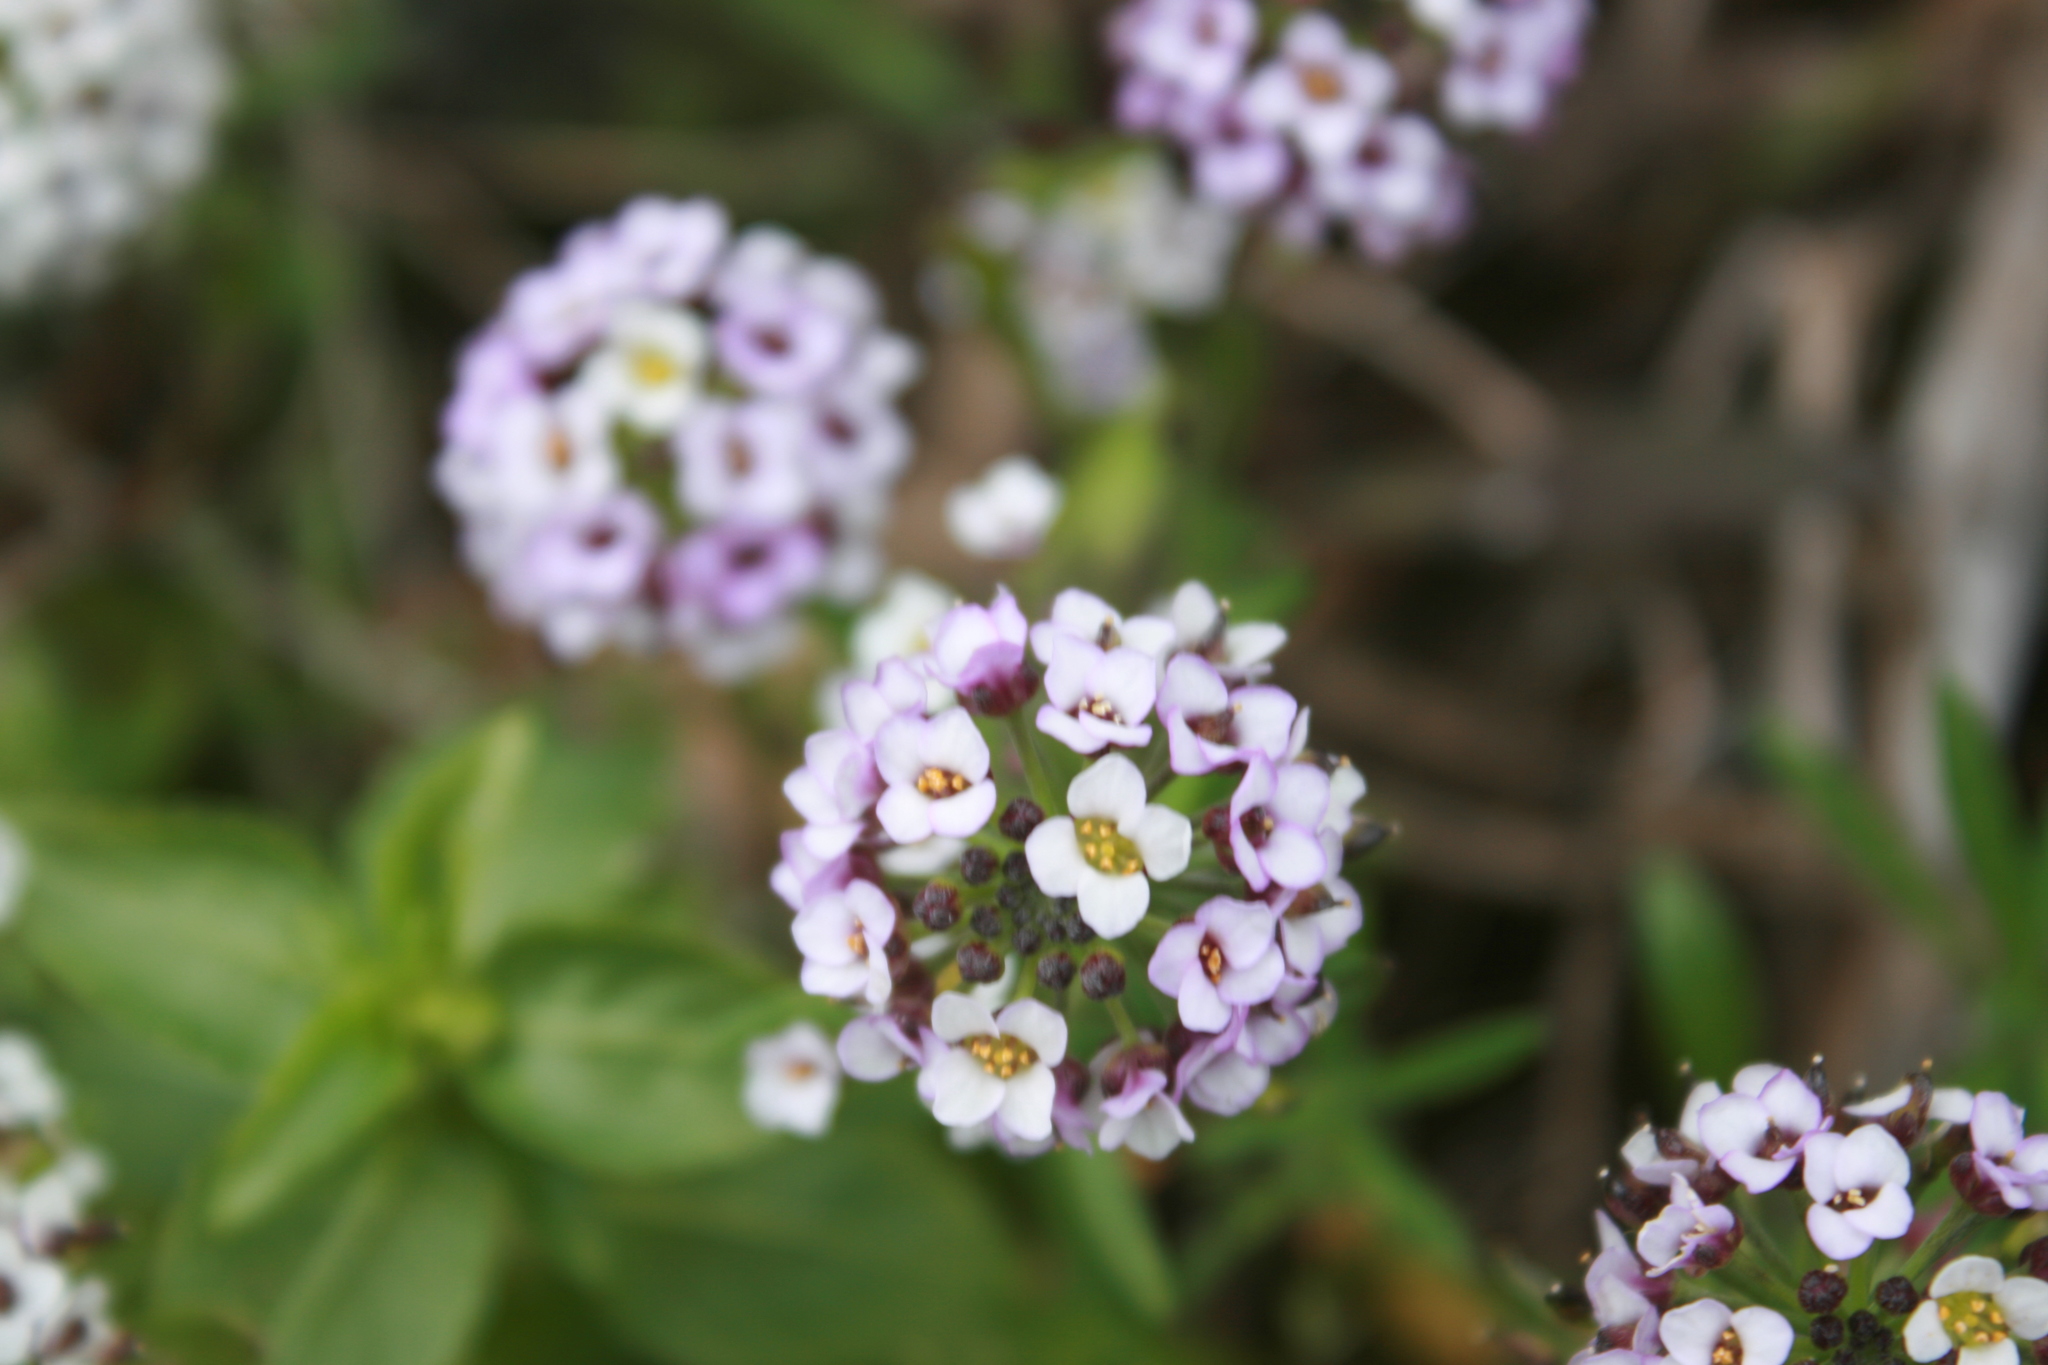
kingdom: Plantae
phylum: Tracheophyta
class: Magnoliopsida
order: Brassicales
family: Brassicaceae
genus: Lobularia
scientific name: Lobularia maritima
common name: Sweet alison
